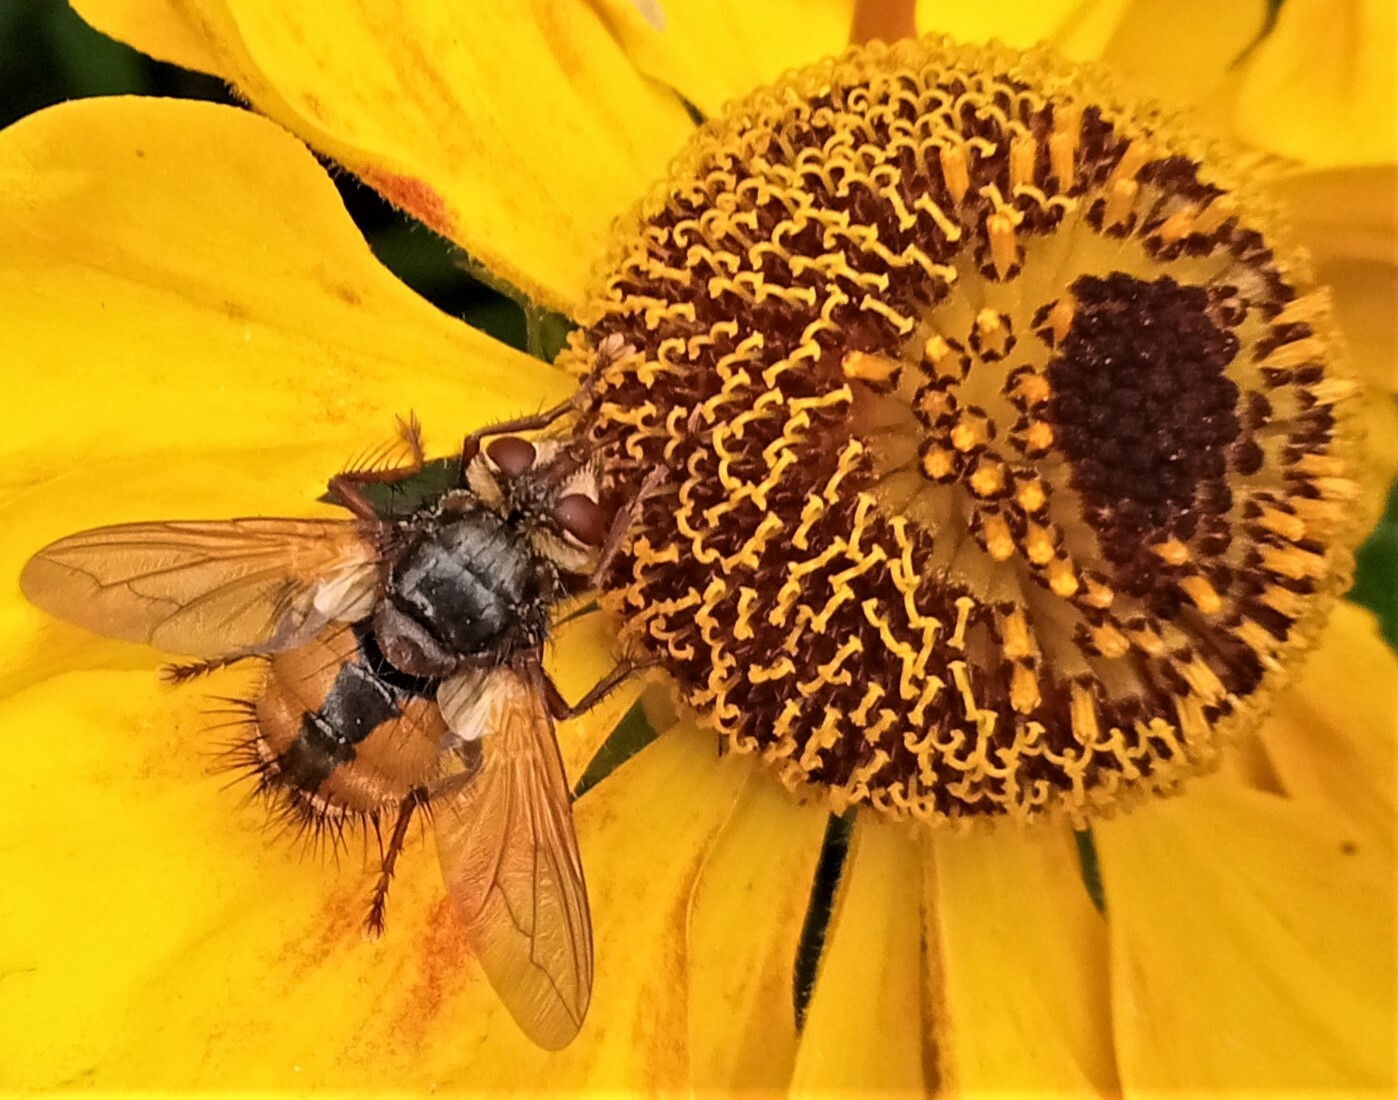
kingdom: Animalia
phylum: Arthropoda
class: Insecta
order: Diptera
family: Tachinidae
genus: Tachina
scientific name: Tachina fera
